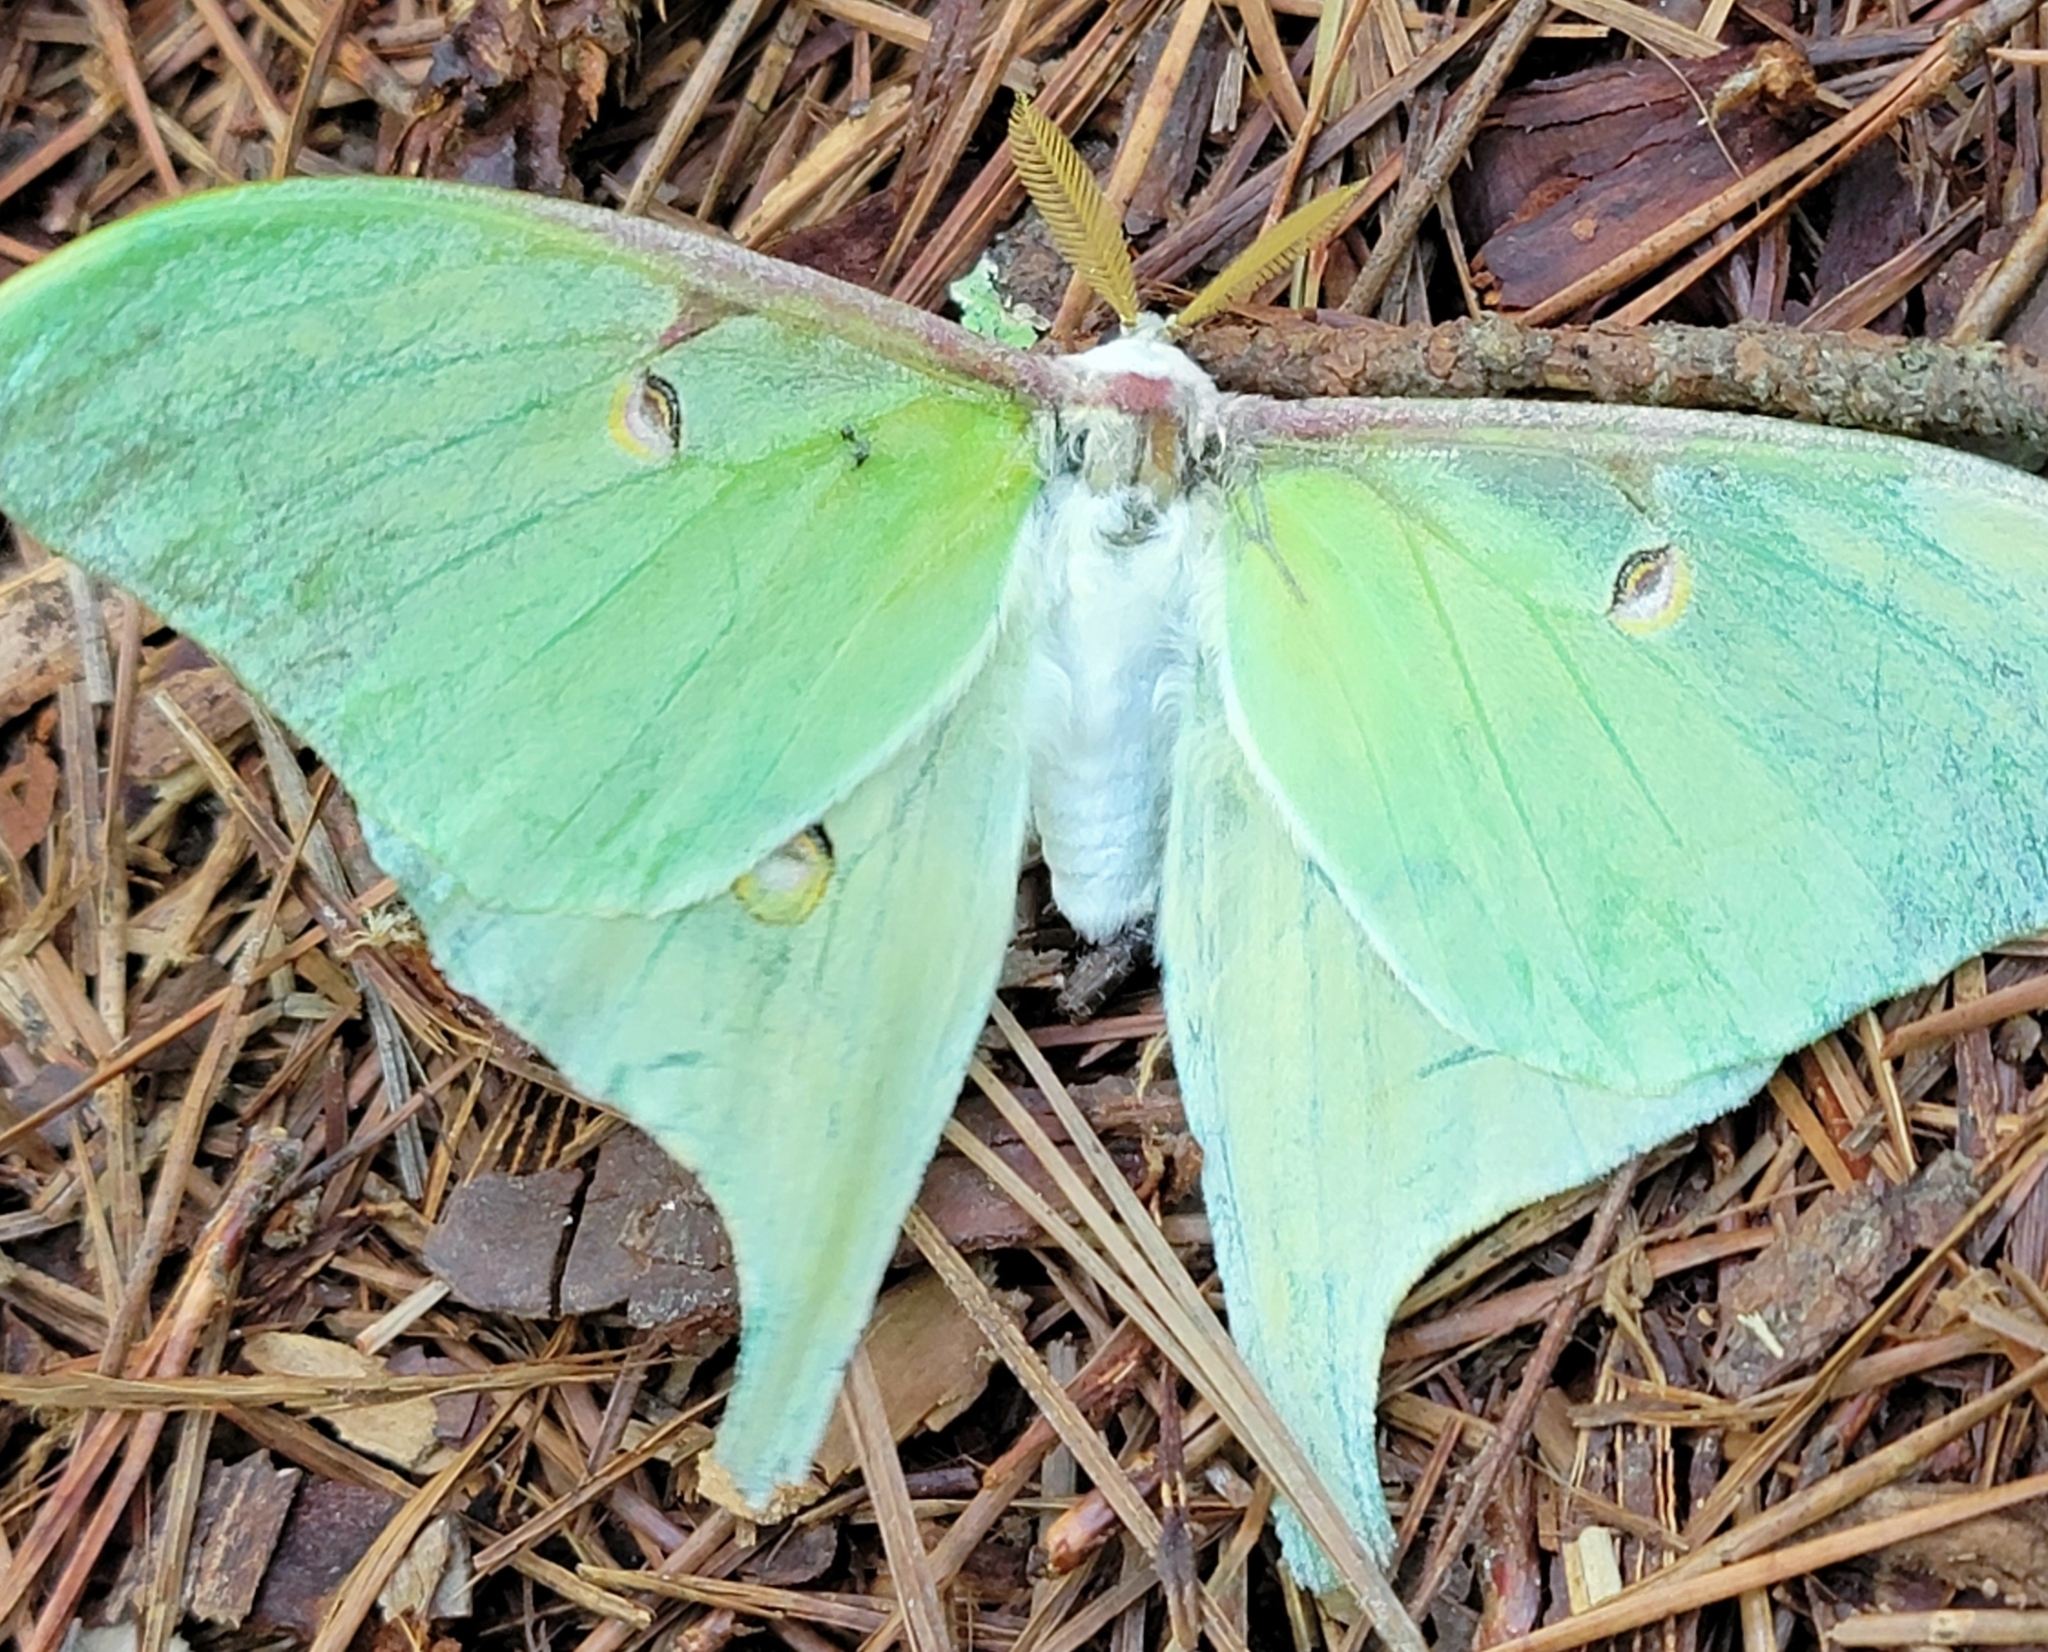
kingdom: Animalia
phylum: Arthropoda
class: Insecta
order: Lepidoptera
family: Saturniidae
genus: Actias
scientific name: Actias luna
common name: Luna moth
